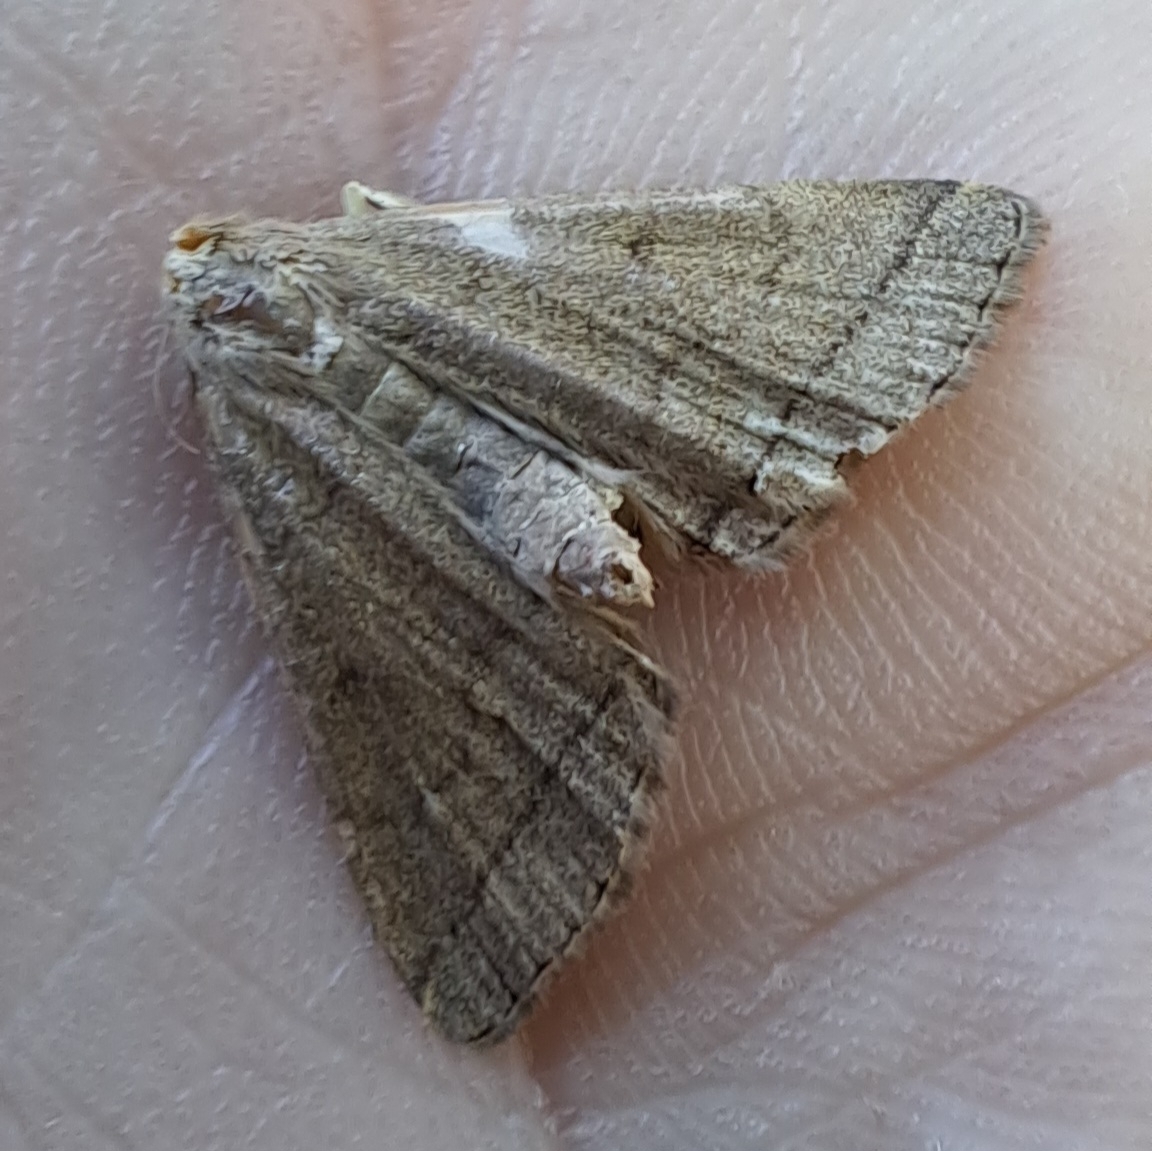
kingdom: Animalia
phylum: Arthropoda
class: Insecta
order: Lepidoptera
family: Erebidae
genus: Herminia
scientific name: Herminia tarsipennalis
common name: Fan-foot
